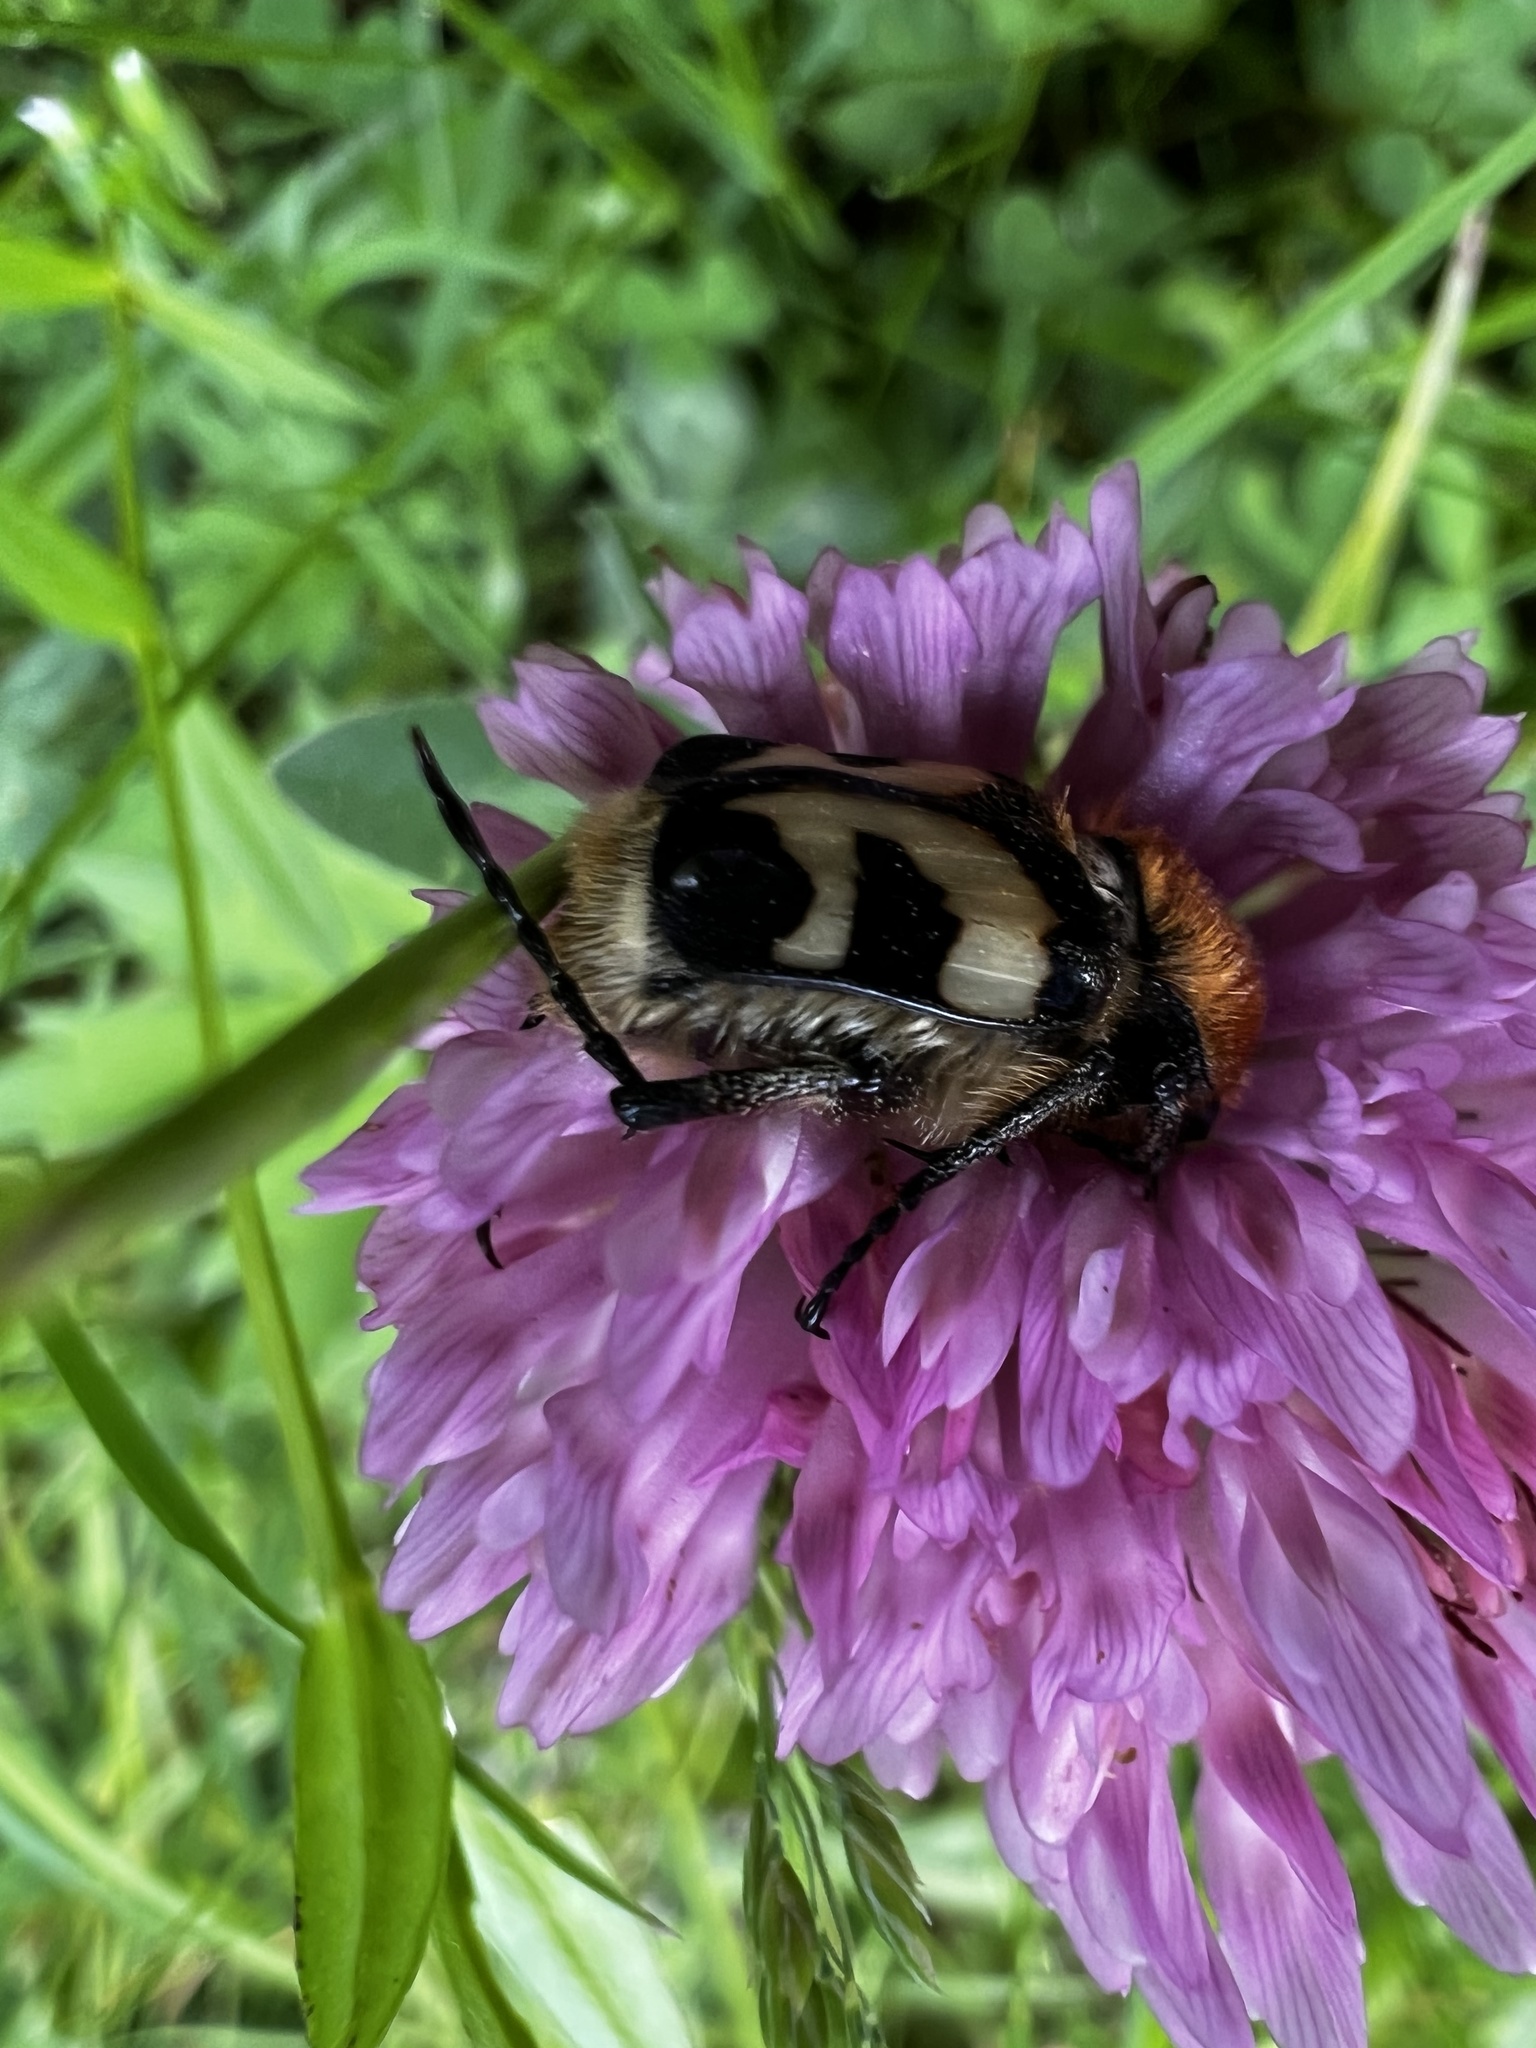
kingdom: Animalia
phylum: Arthropoda
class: Insecta
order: Coleoptera
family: Scarabaeidae
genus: Trichius
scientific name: Trichius fasciatus
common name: Bee beetle
